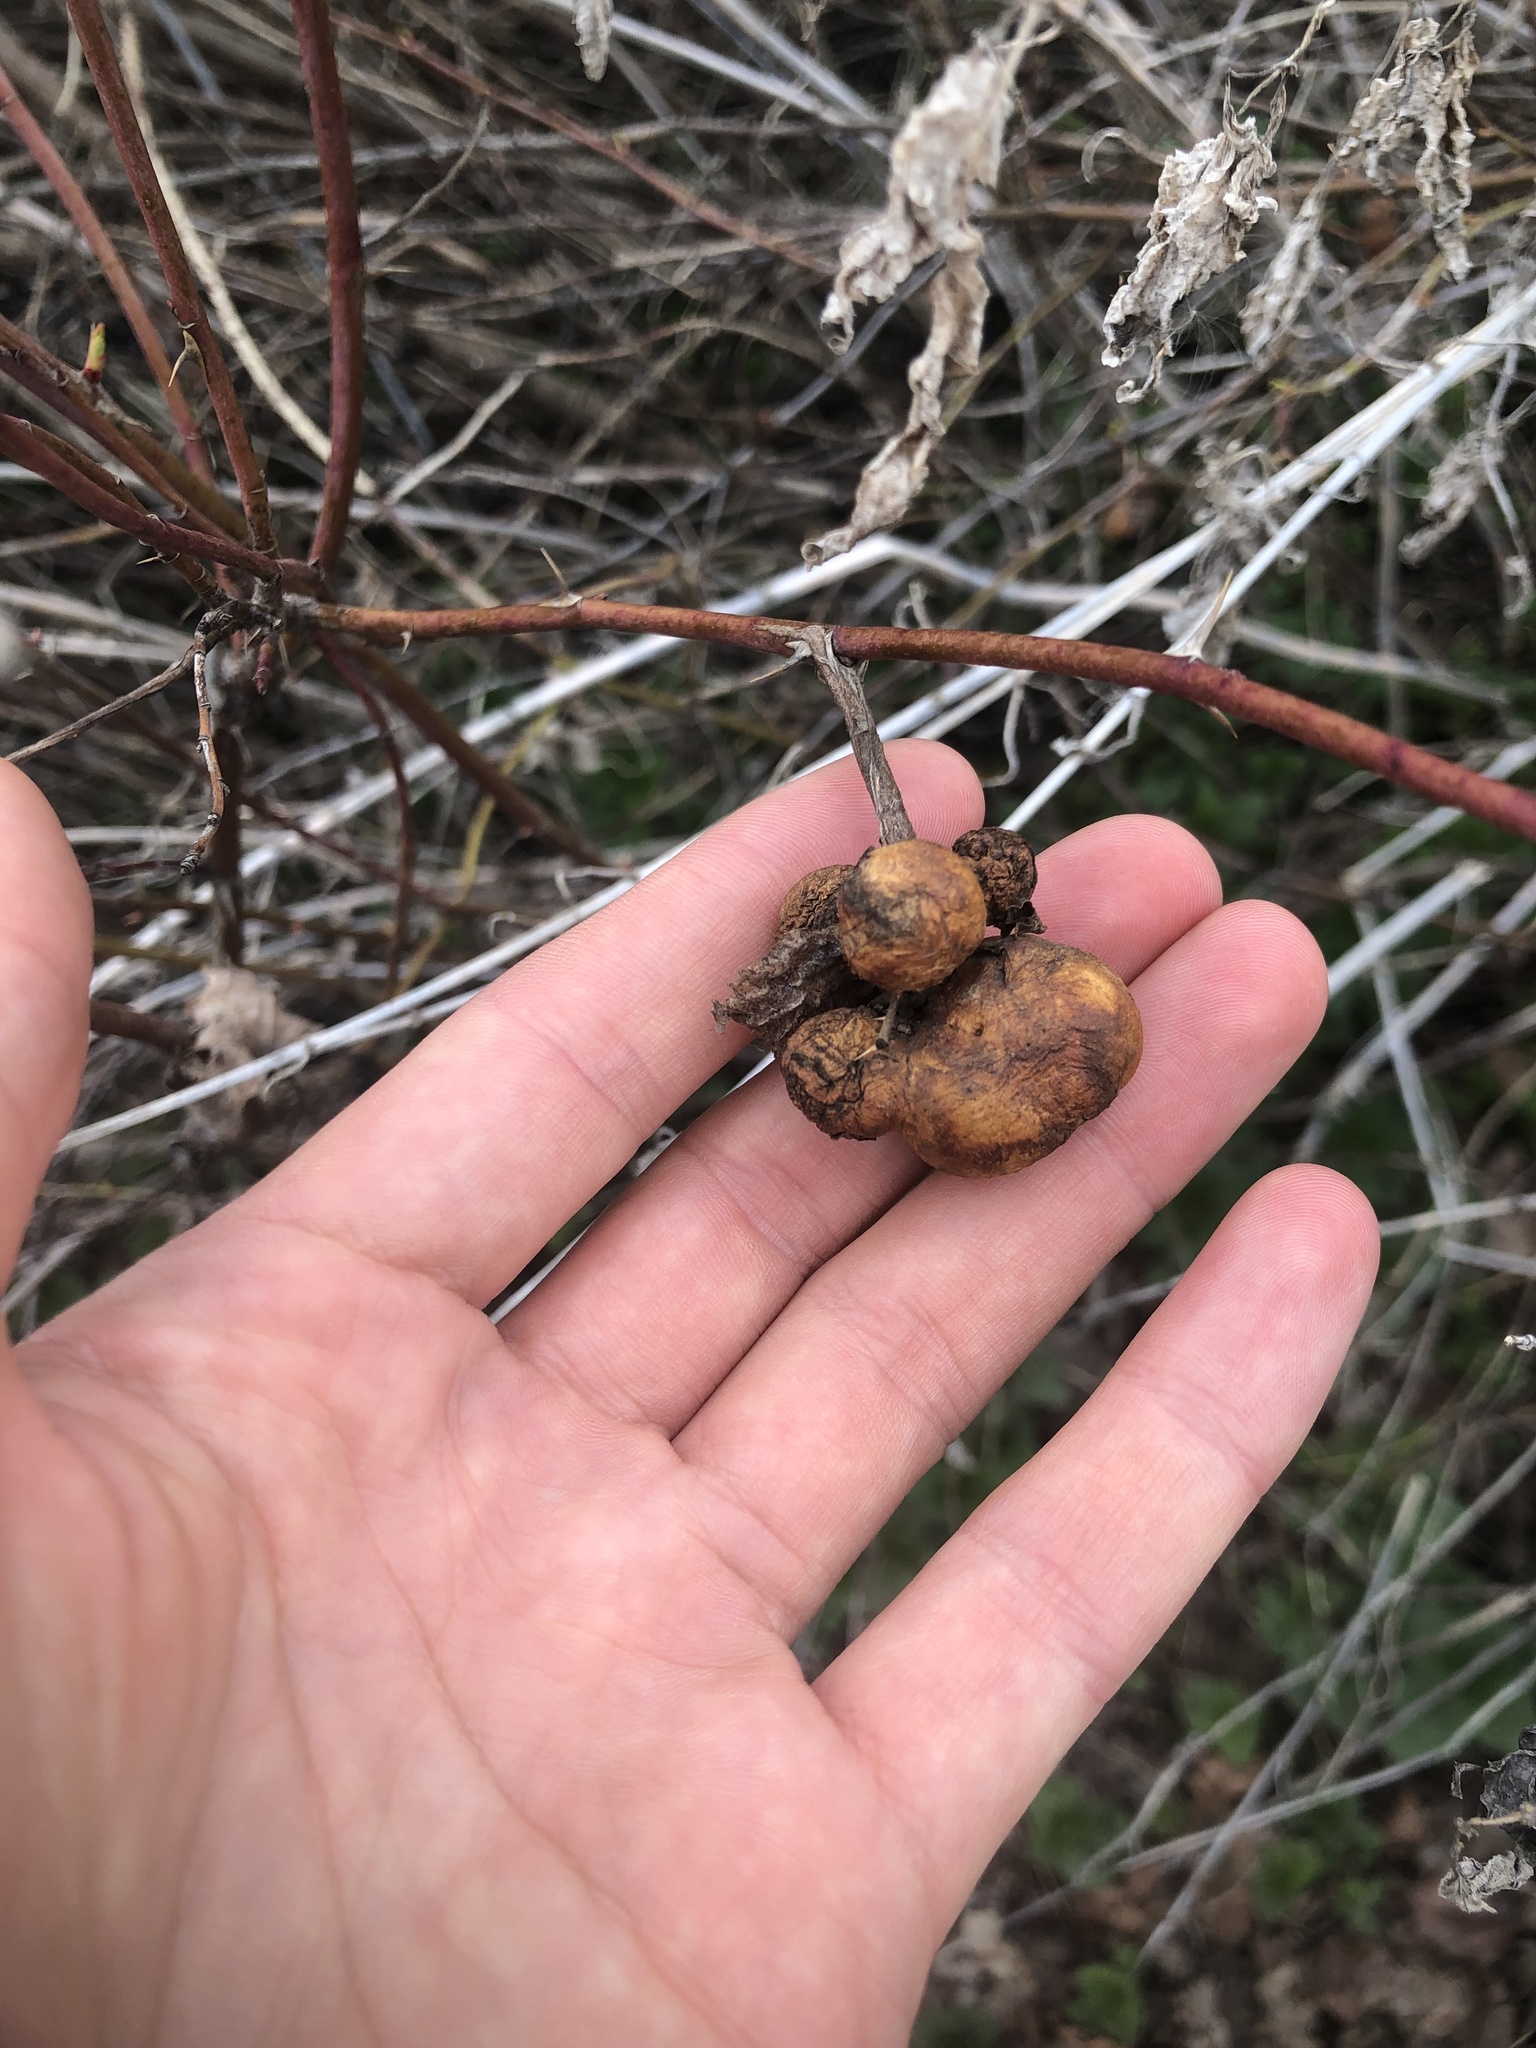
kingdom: Animalia
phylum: Arthropoda
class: Insecta
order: Hymenoptera
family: Cynipidae
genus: Diplolepis
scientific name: Diplolepis variabilis
